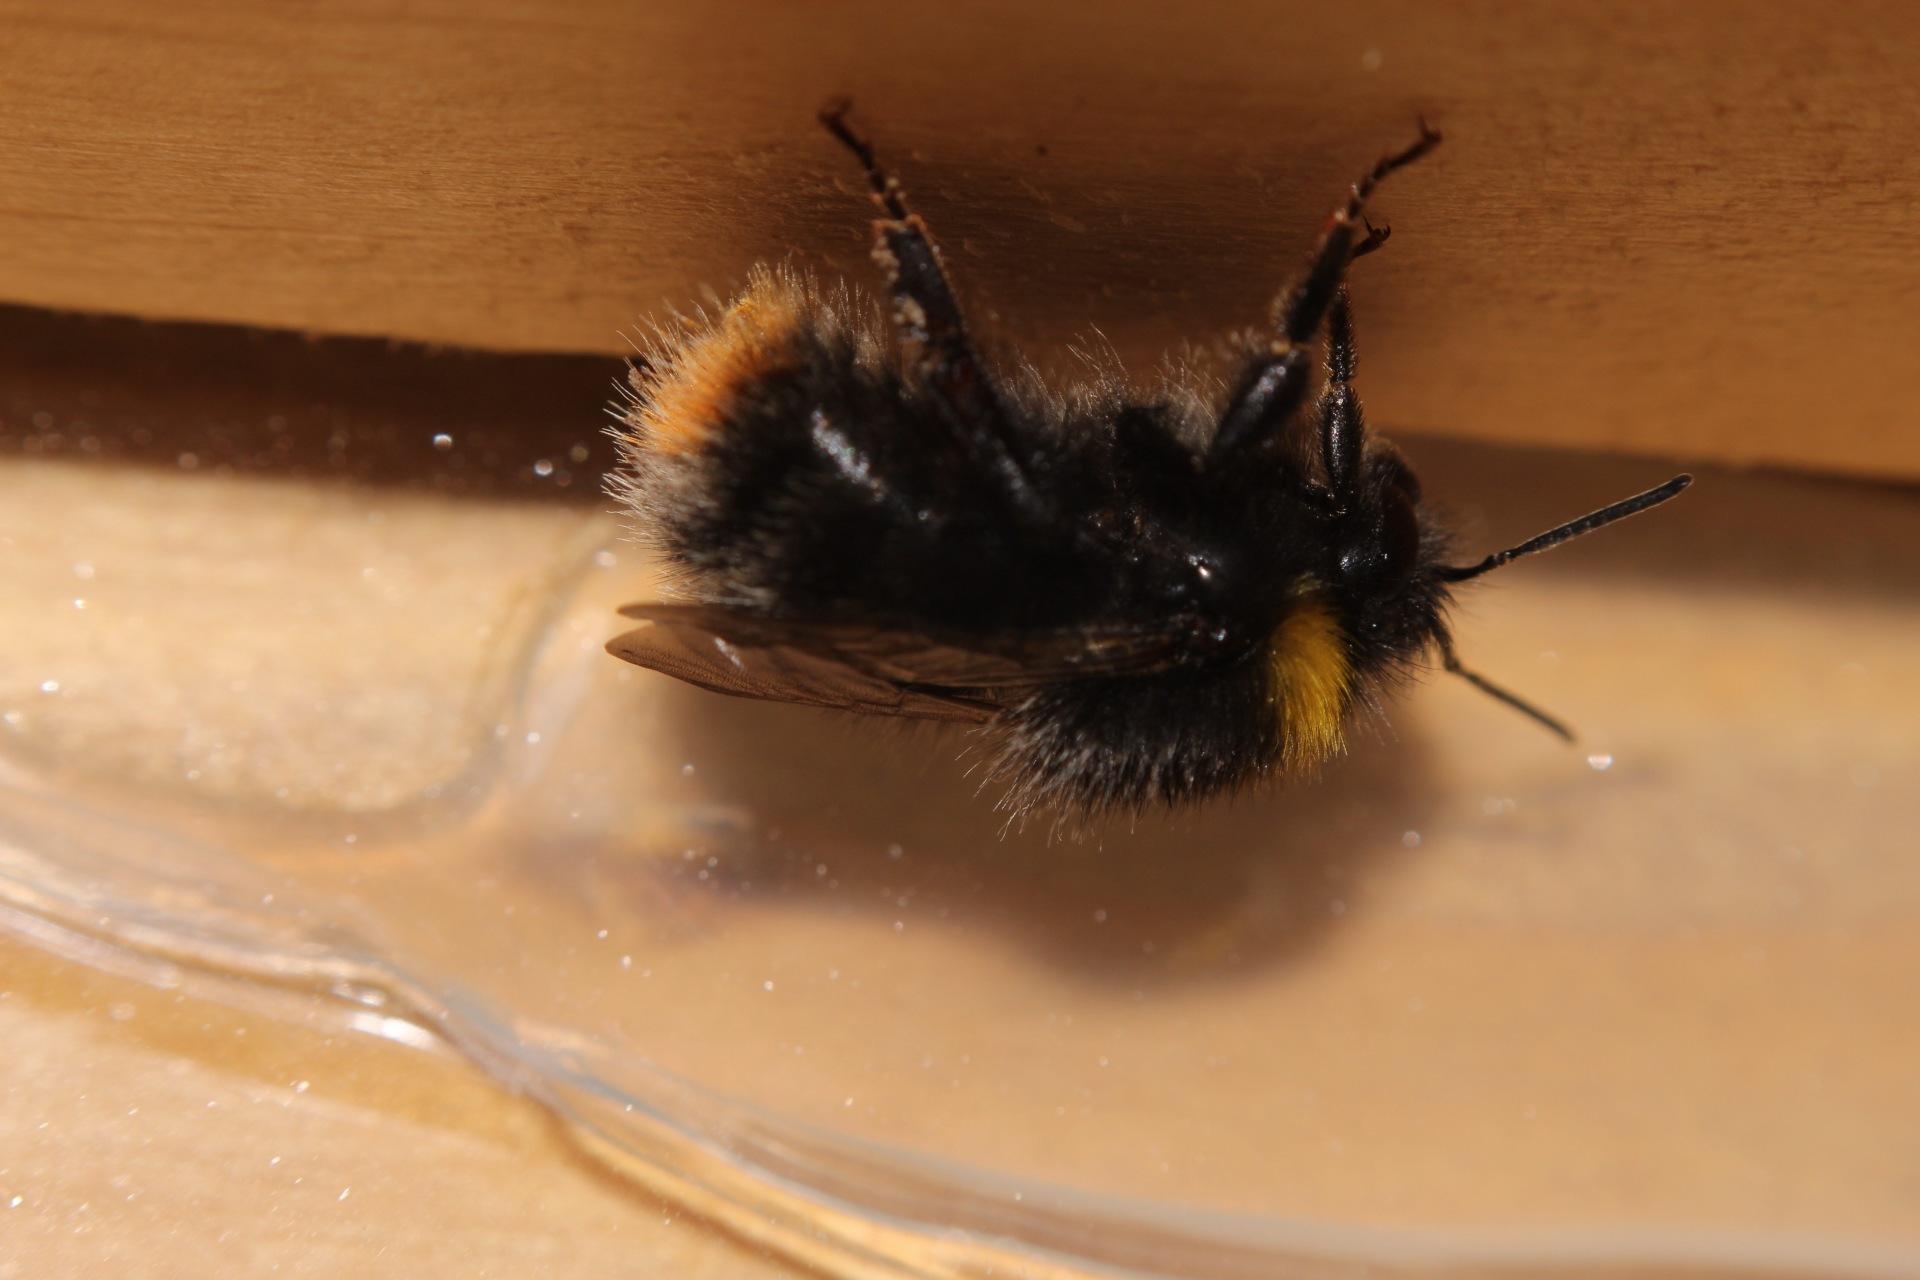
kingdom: Animalia
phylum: Arthropoda
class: Insecta
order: Hymenoptera
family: Apidae
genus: Bombus
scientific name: Bombus pratorum
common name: Early humble-bee
